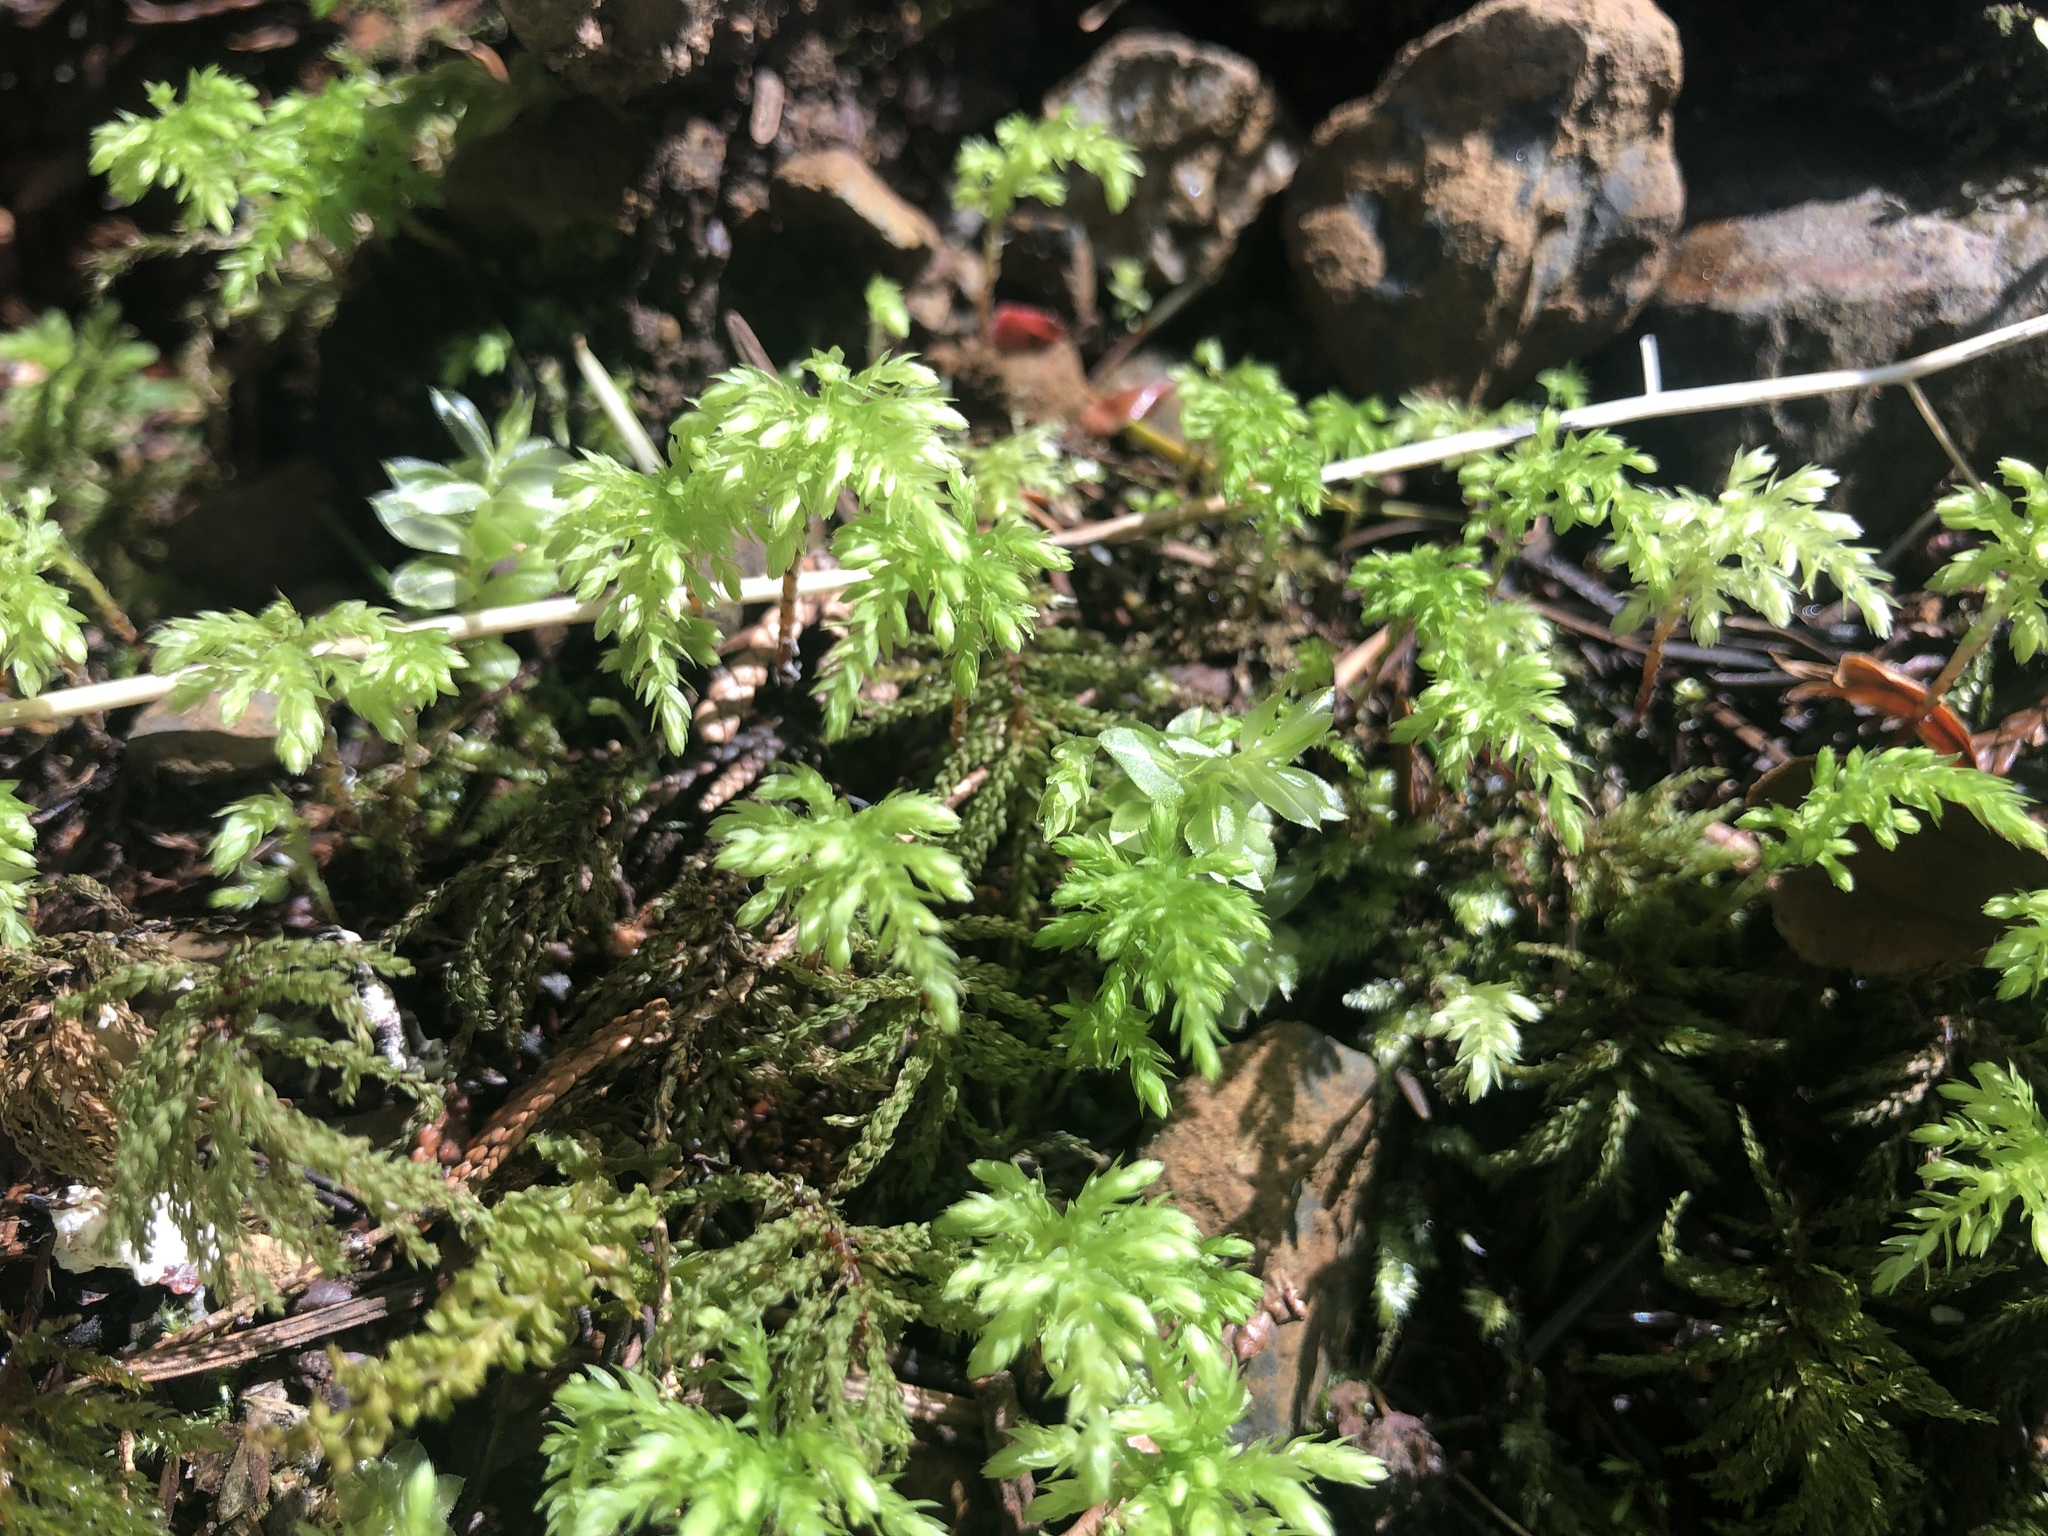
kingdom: Plantae
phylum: Bryophyta
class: Bryopsida
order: Bryales
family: Mniaceae
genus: Leucolepis
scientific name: Leucolepis acanthoneura
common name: Leucolepis umbrella moss
